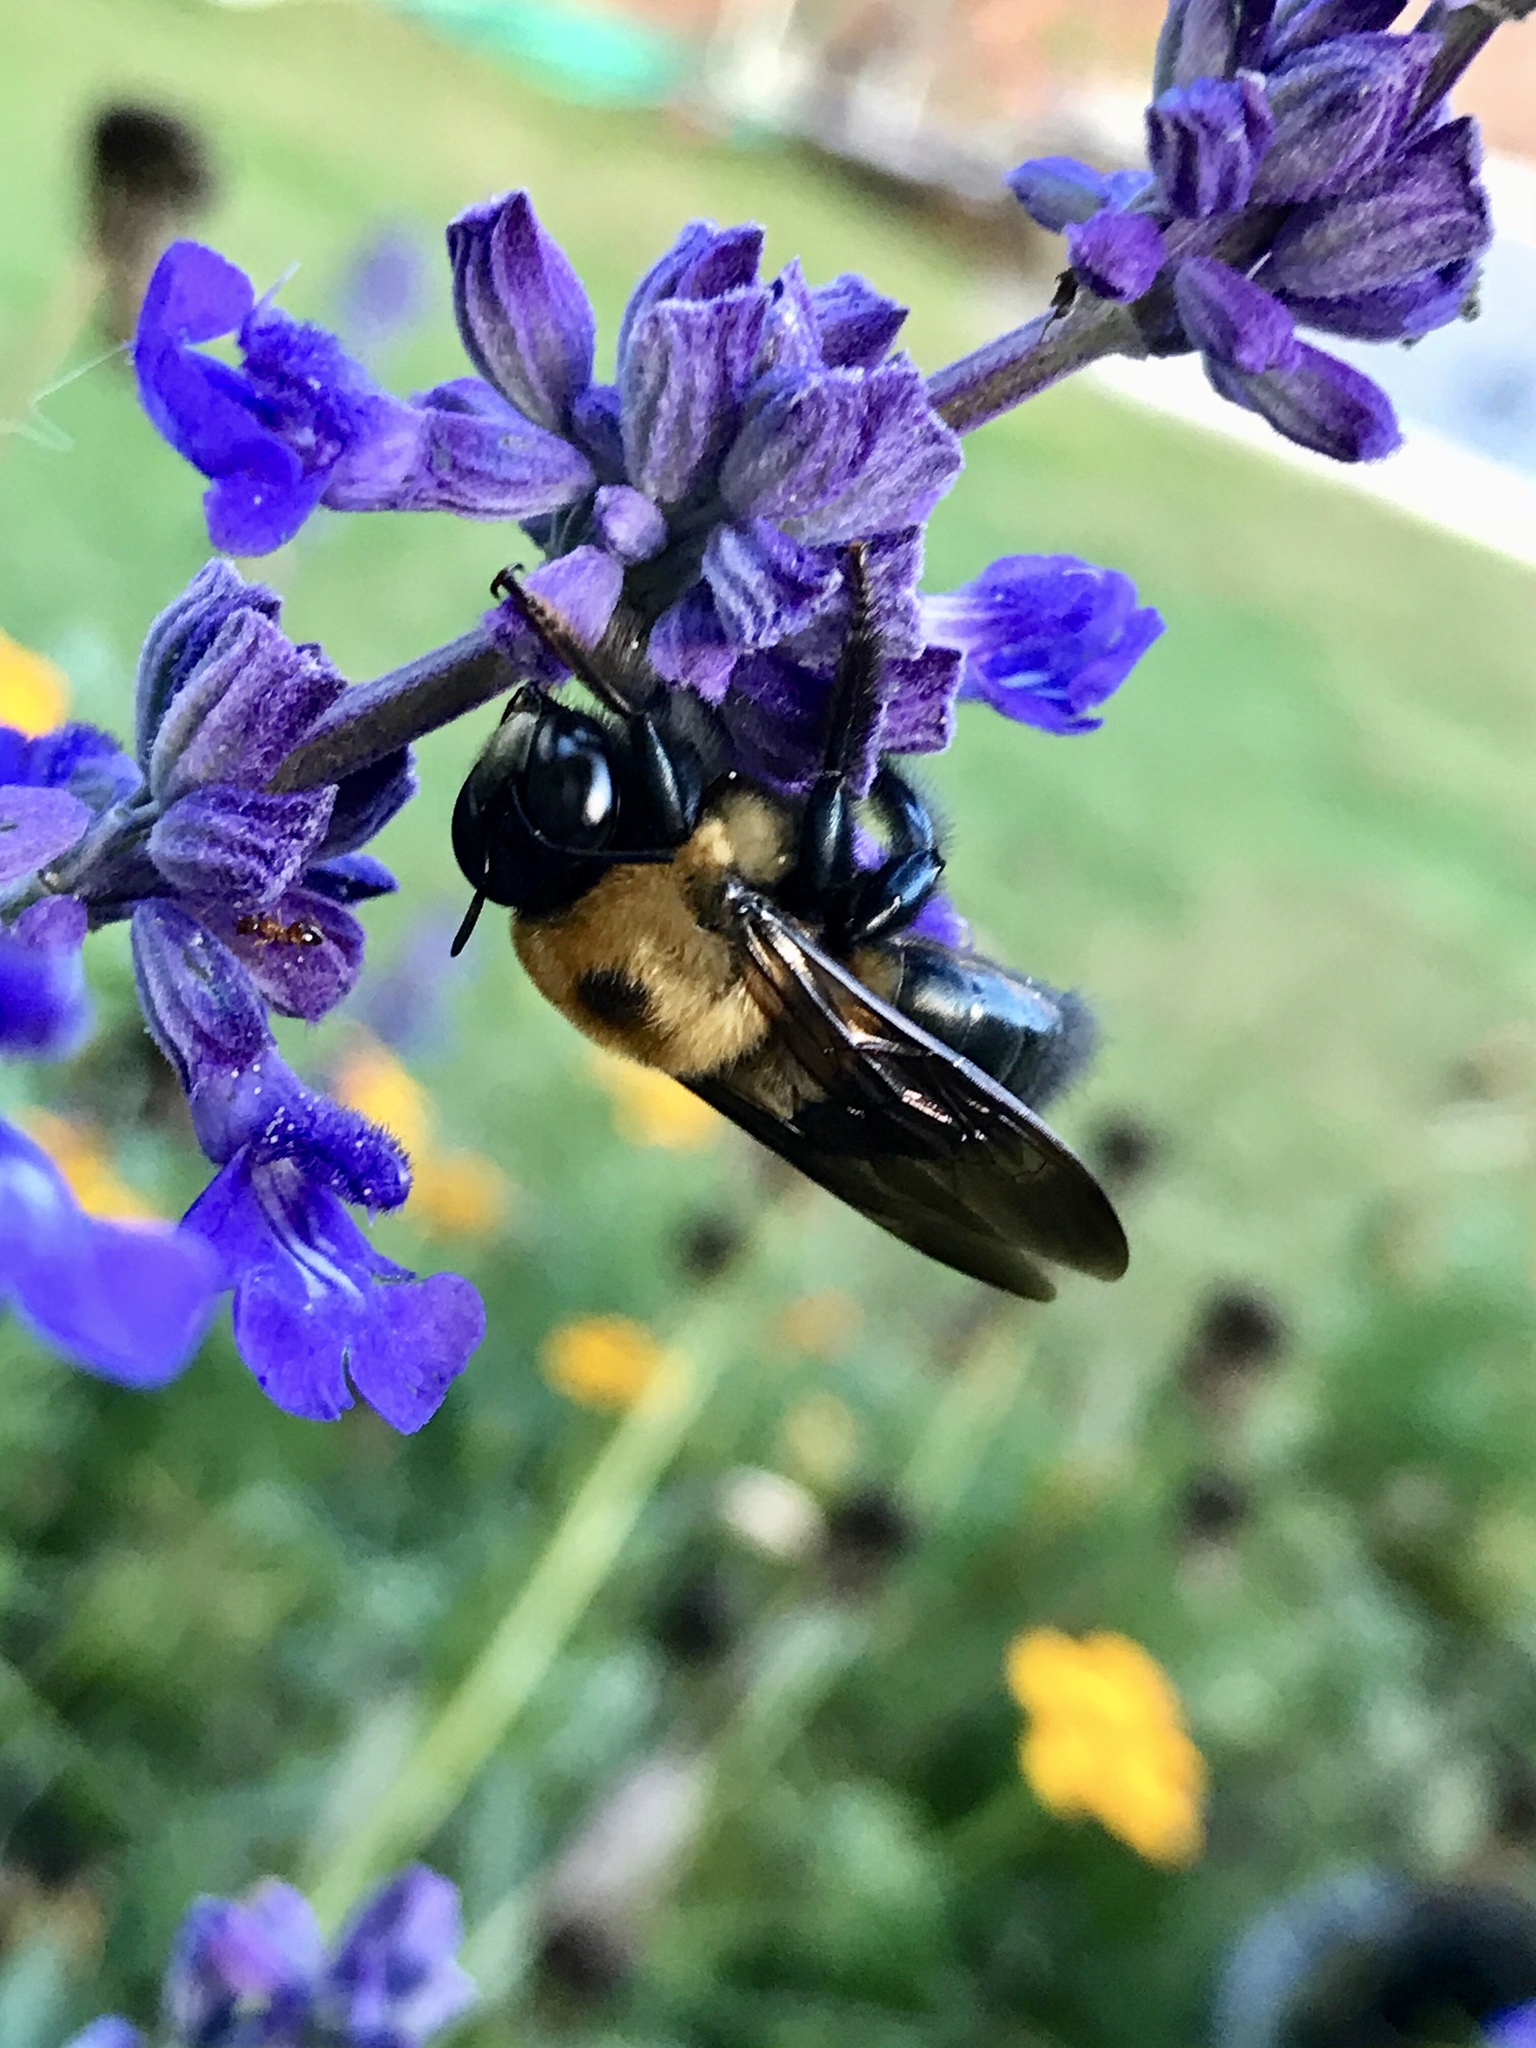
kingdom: Animalia
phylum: Arthropoda
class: Insecta
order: Hymenoptera
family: Apidae
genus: Xylocopa
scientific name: Xylocopa virginica
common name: Carpenter bee
